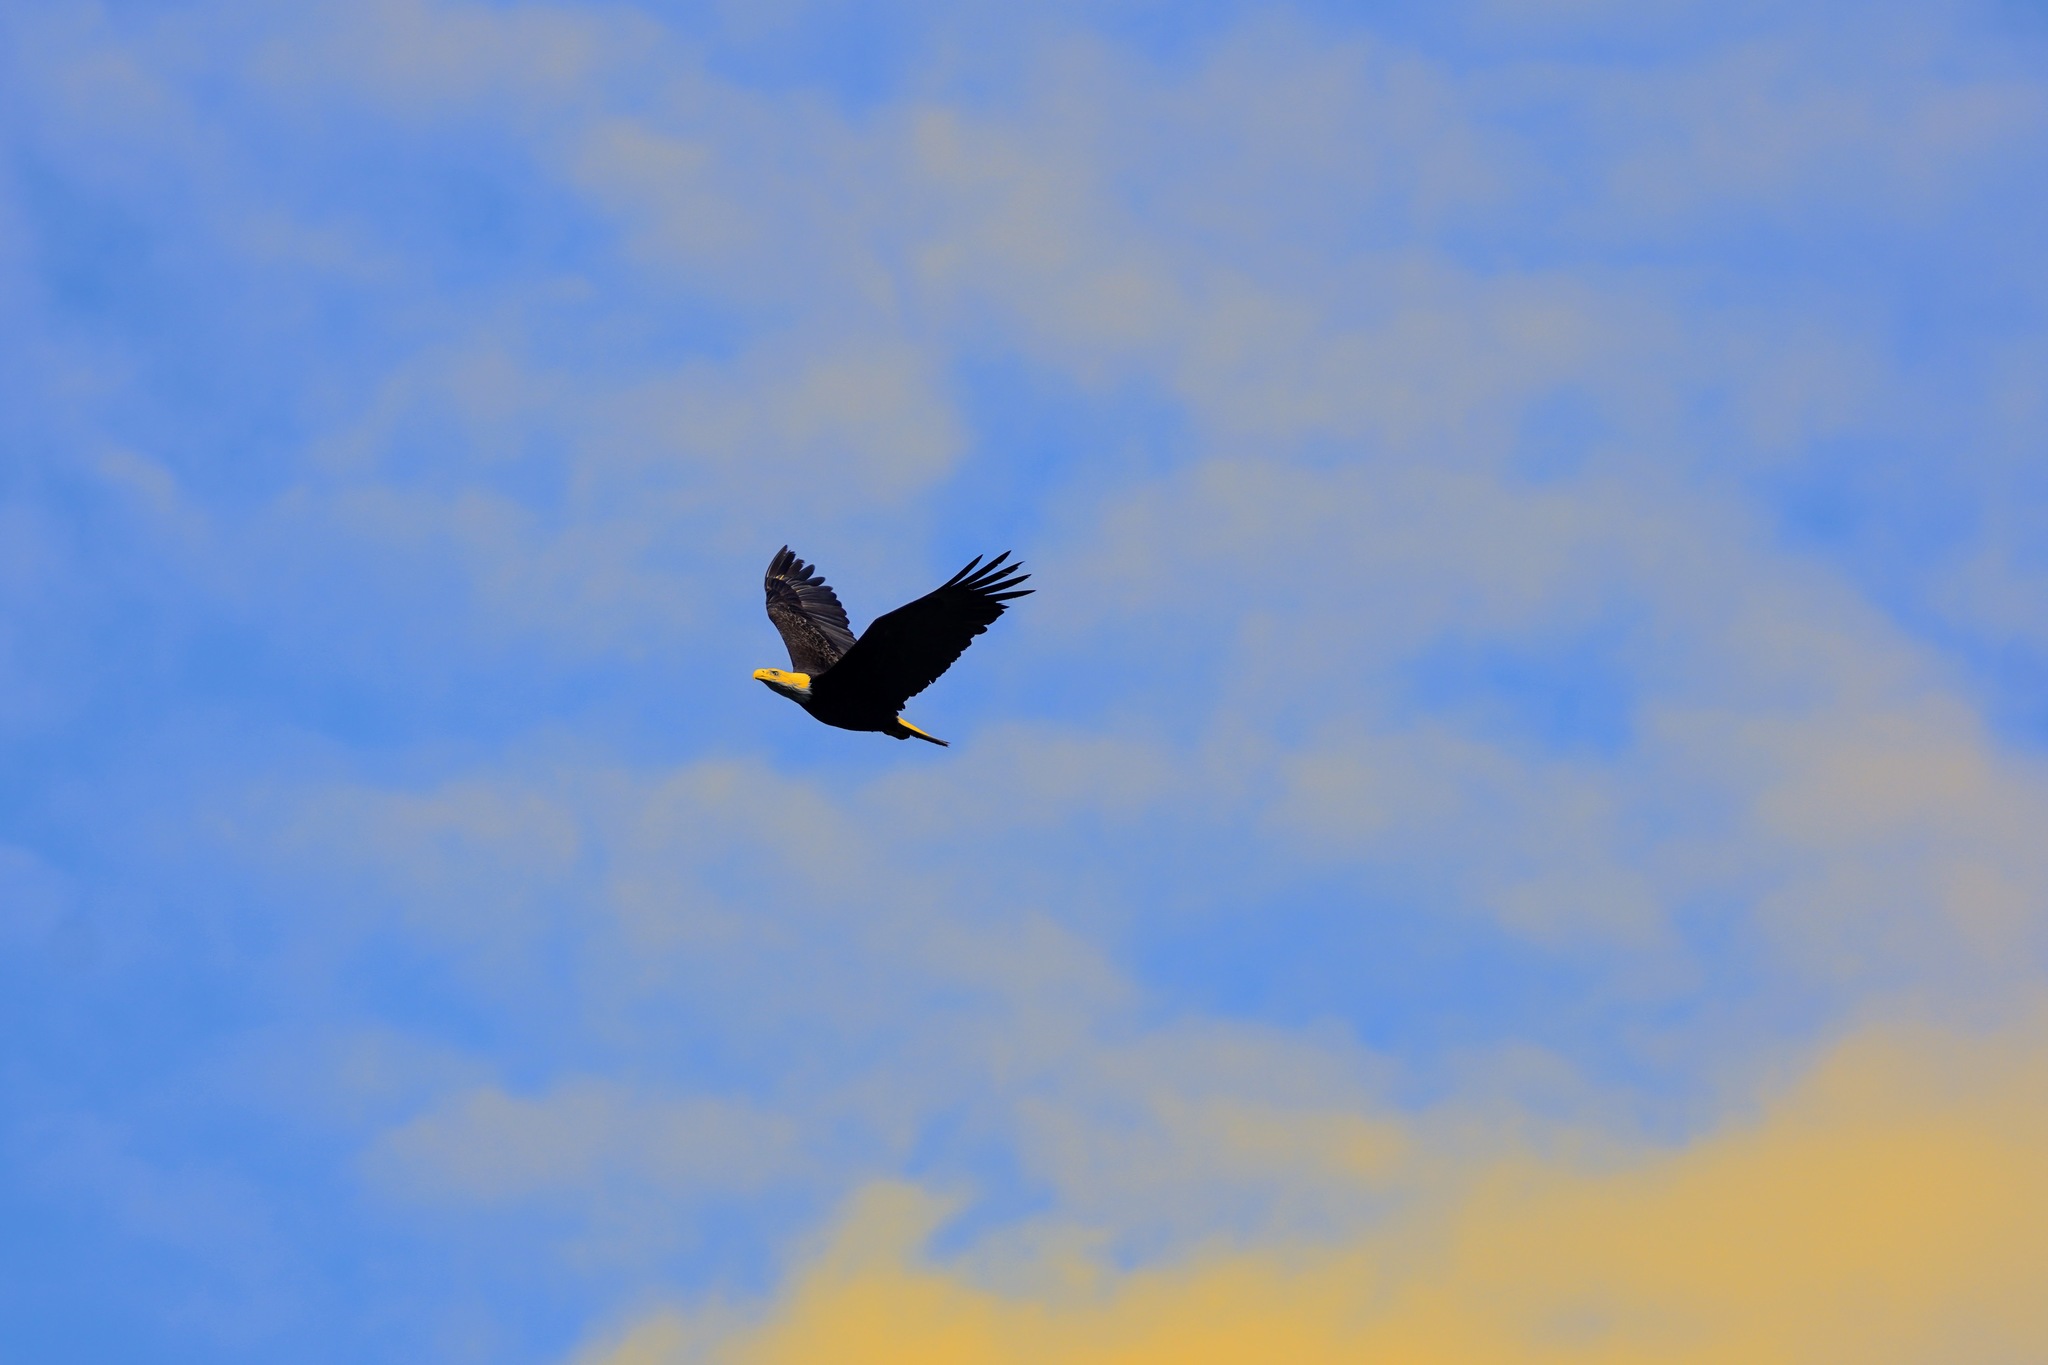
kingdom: Animalia
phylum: Chordata
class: Aves
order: Accipitriformes
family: Accipitridae
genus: Haliaeetus
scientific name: Haliaeetus leucocephalus
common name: Bald eagle
